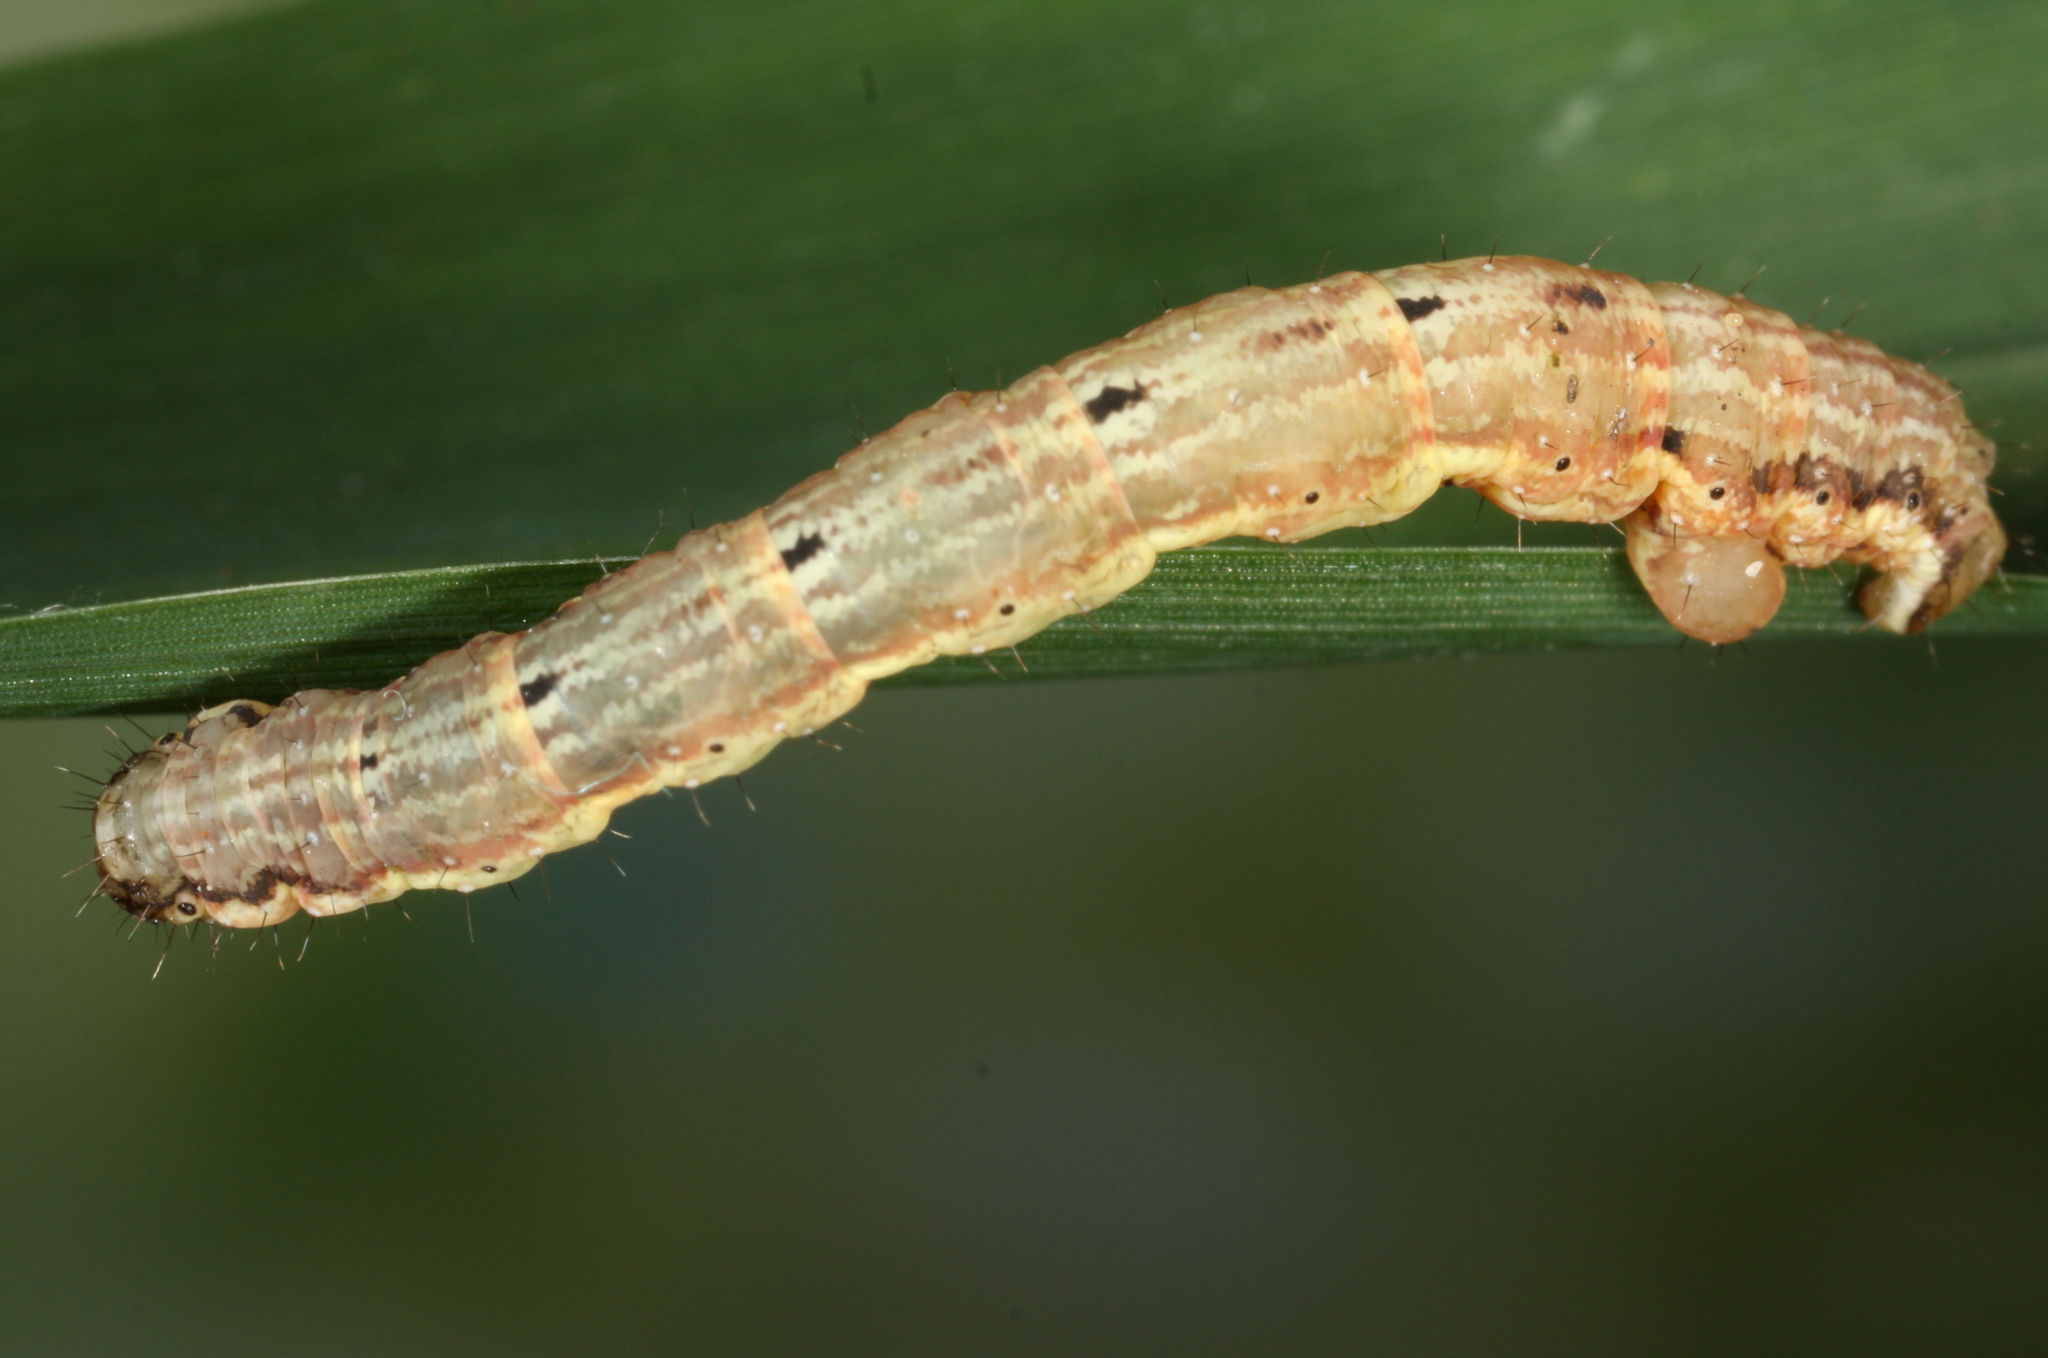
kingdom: Animalia
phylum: Arthropoda
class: Insecta
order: Lepidoptera
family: Geometridae
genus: Xanthorhoe
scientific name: Xanthorhoe biriviata
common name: Balsam carpet
